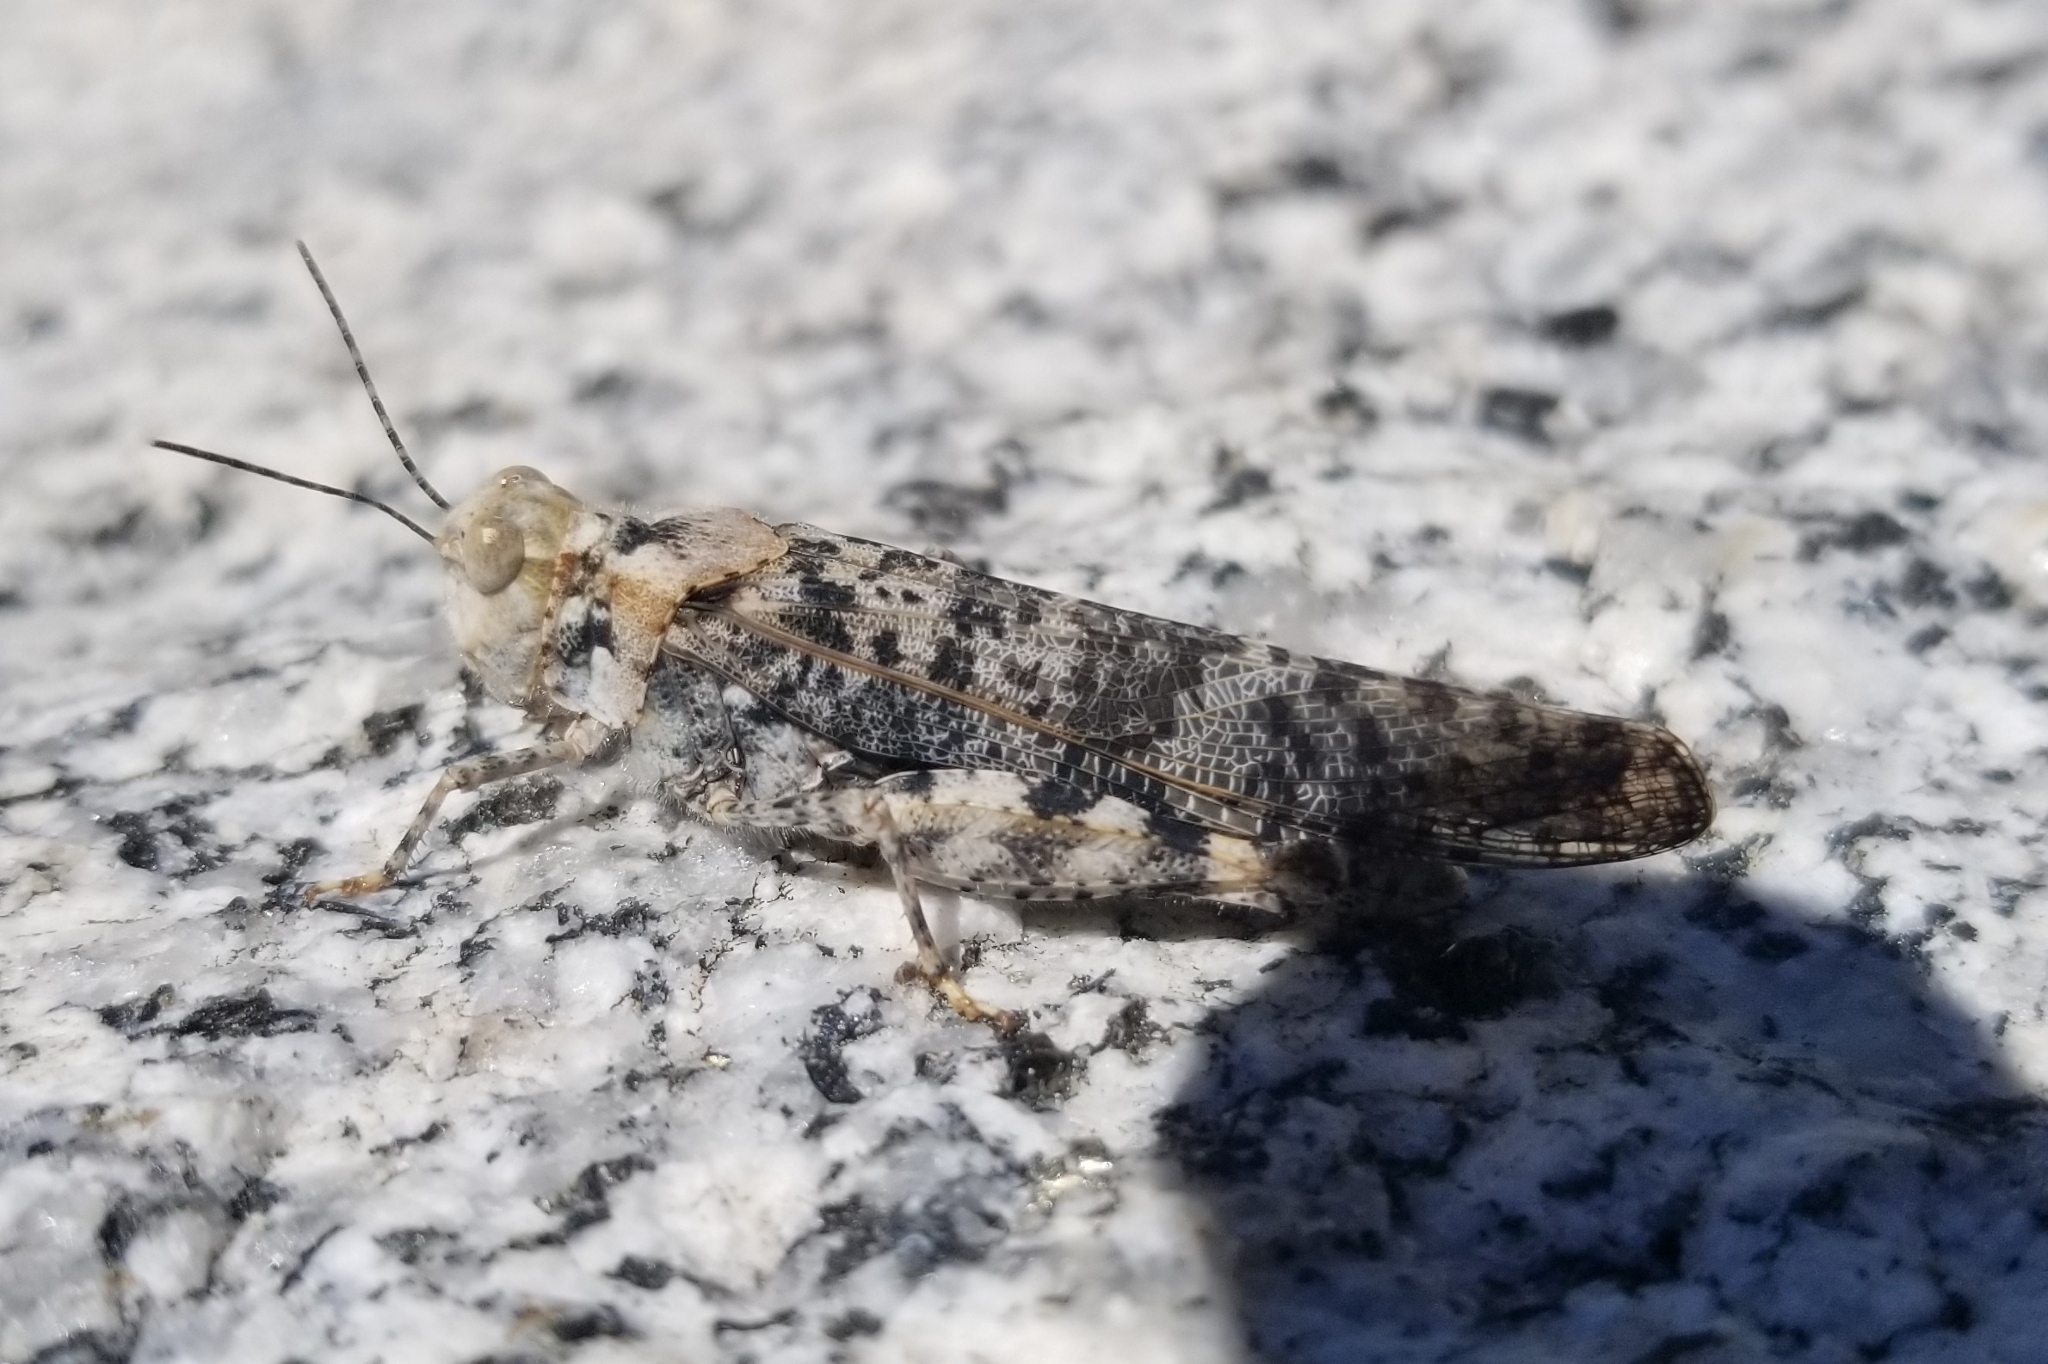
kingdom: Animalia
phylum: Arthropoda
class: Insecta
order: Orthoptera
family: Acrididae
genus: Circotettix
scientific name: Circotettix maculatus
